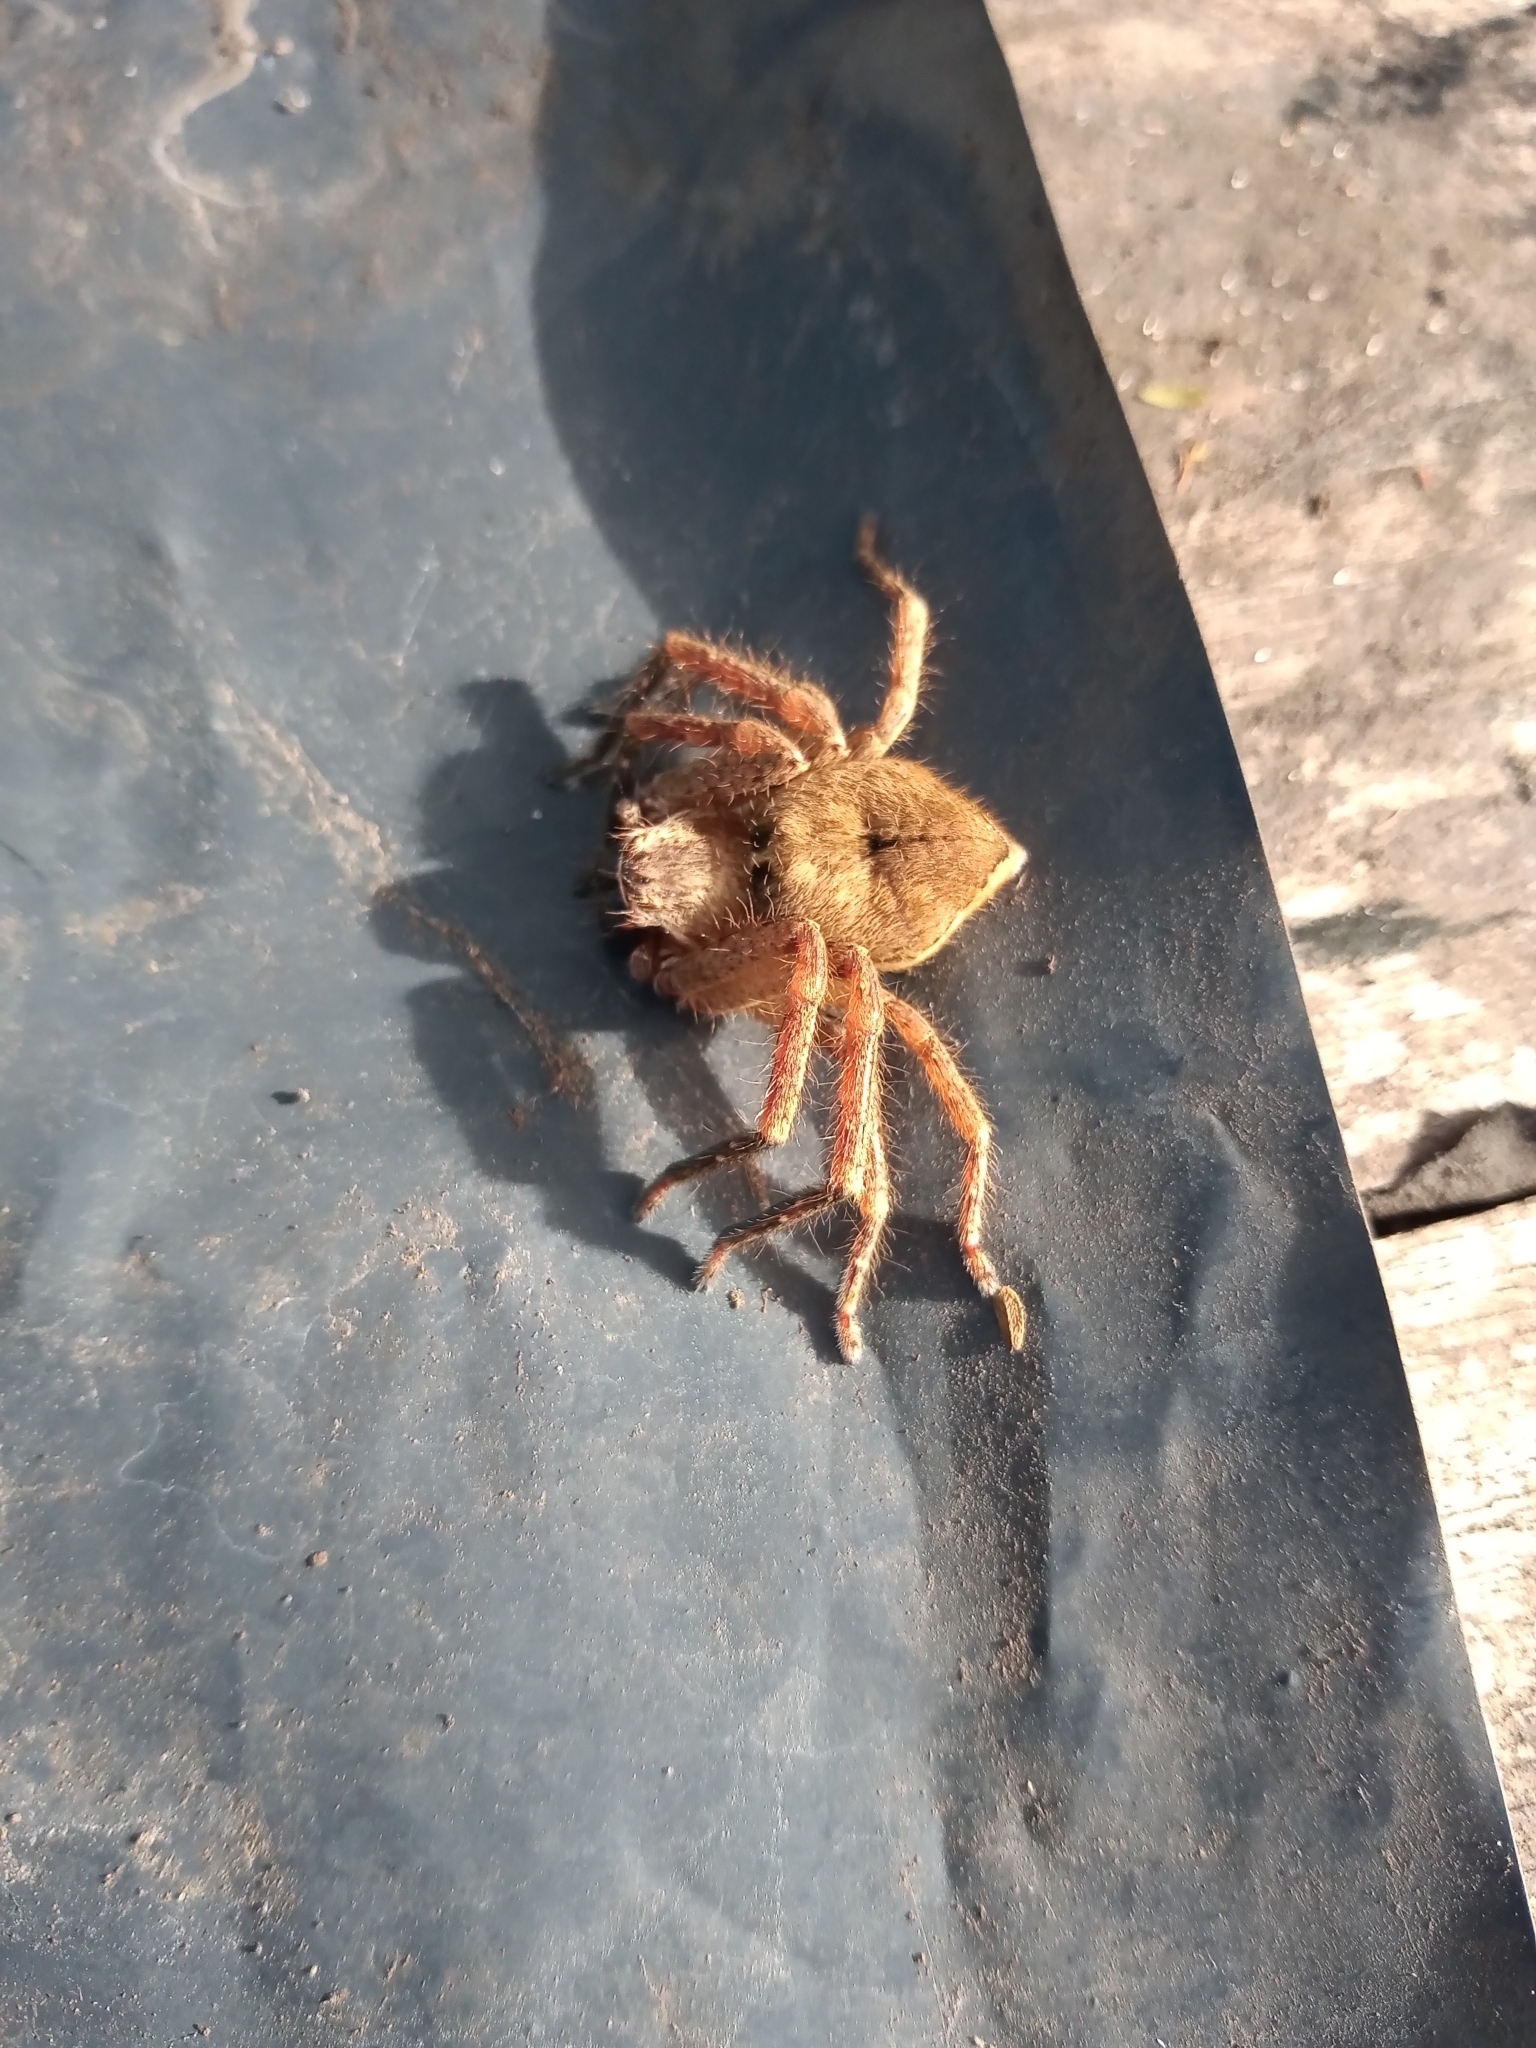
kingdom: Animalia
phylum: Arthropoda
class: Arachnida
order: Araneae
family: Sparassidae
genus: Polybetes
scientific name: Polybetes rapidus
